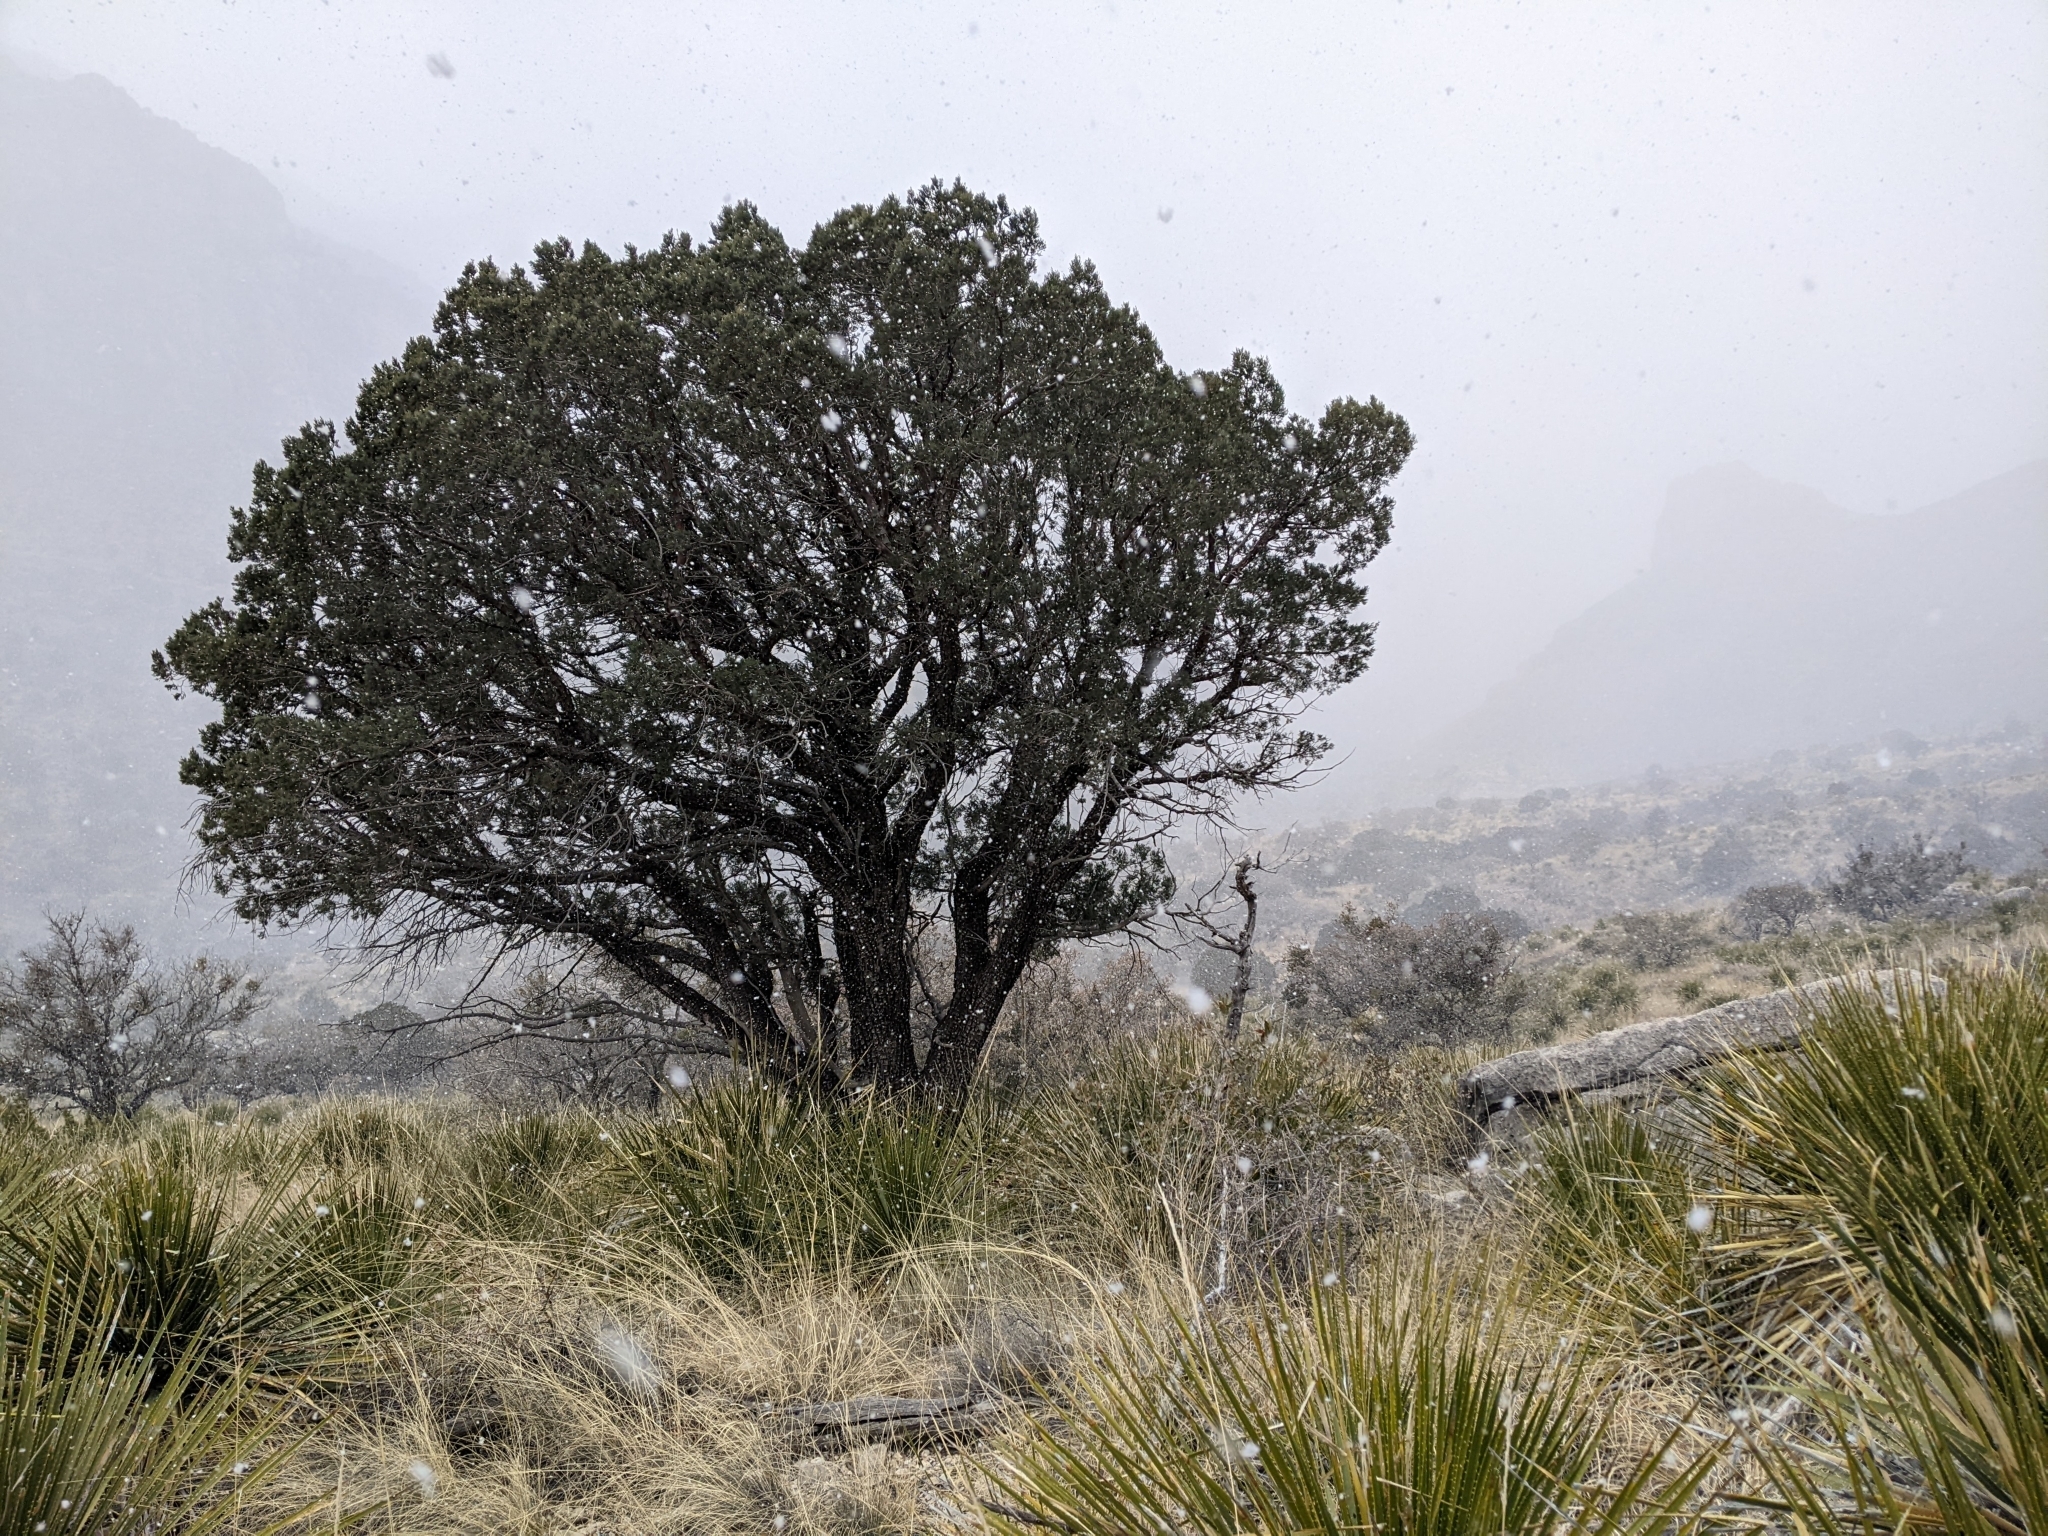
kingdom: Plantae
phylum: Tracheophyta
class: Pinopsida
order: Pinales
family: Cupressaceae
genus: Juniperus
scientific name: Juniperus deppeana
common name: Alligator juniper
